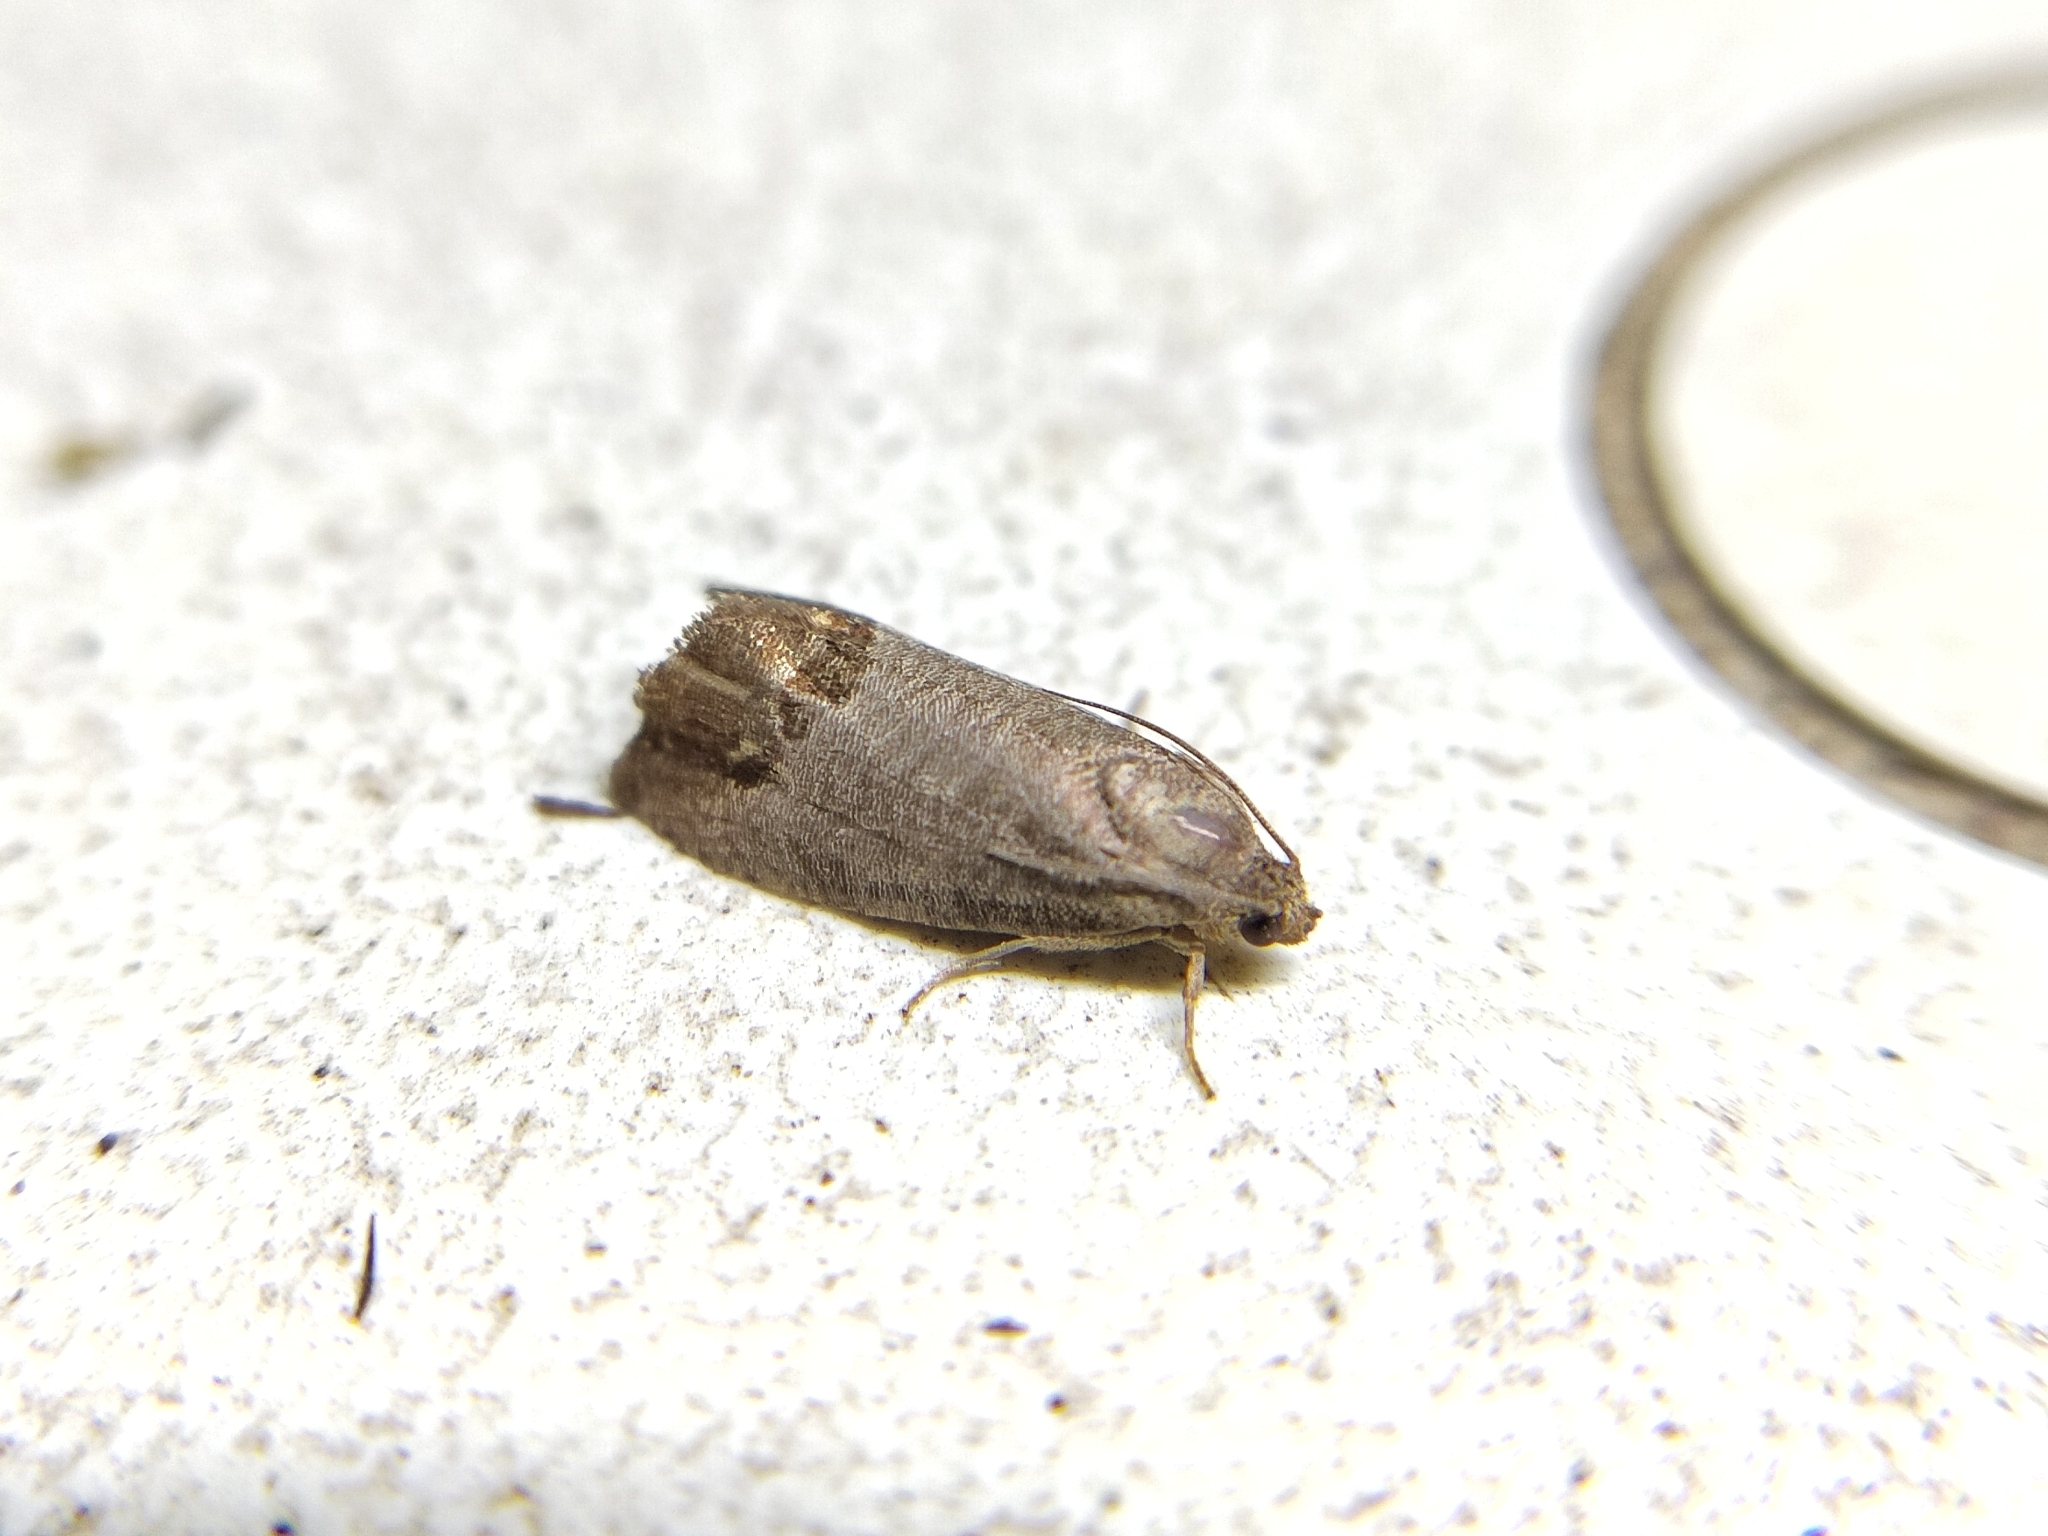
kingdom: Animalia
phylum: Arthropoda
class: Insecta
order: Lepidoptera
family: Tortricidae
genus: Cydia
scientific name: Cydia pomonella
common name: Codling moth
